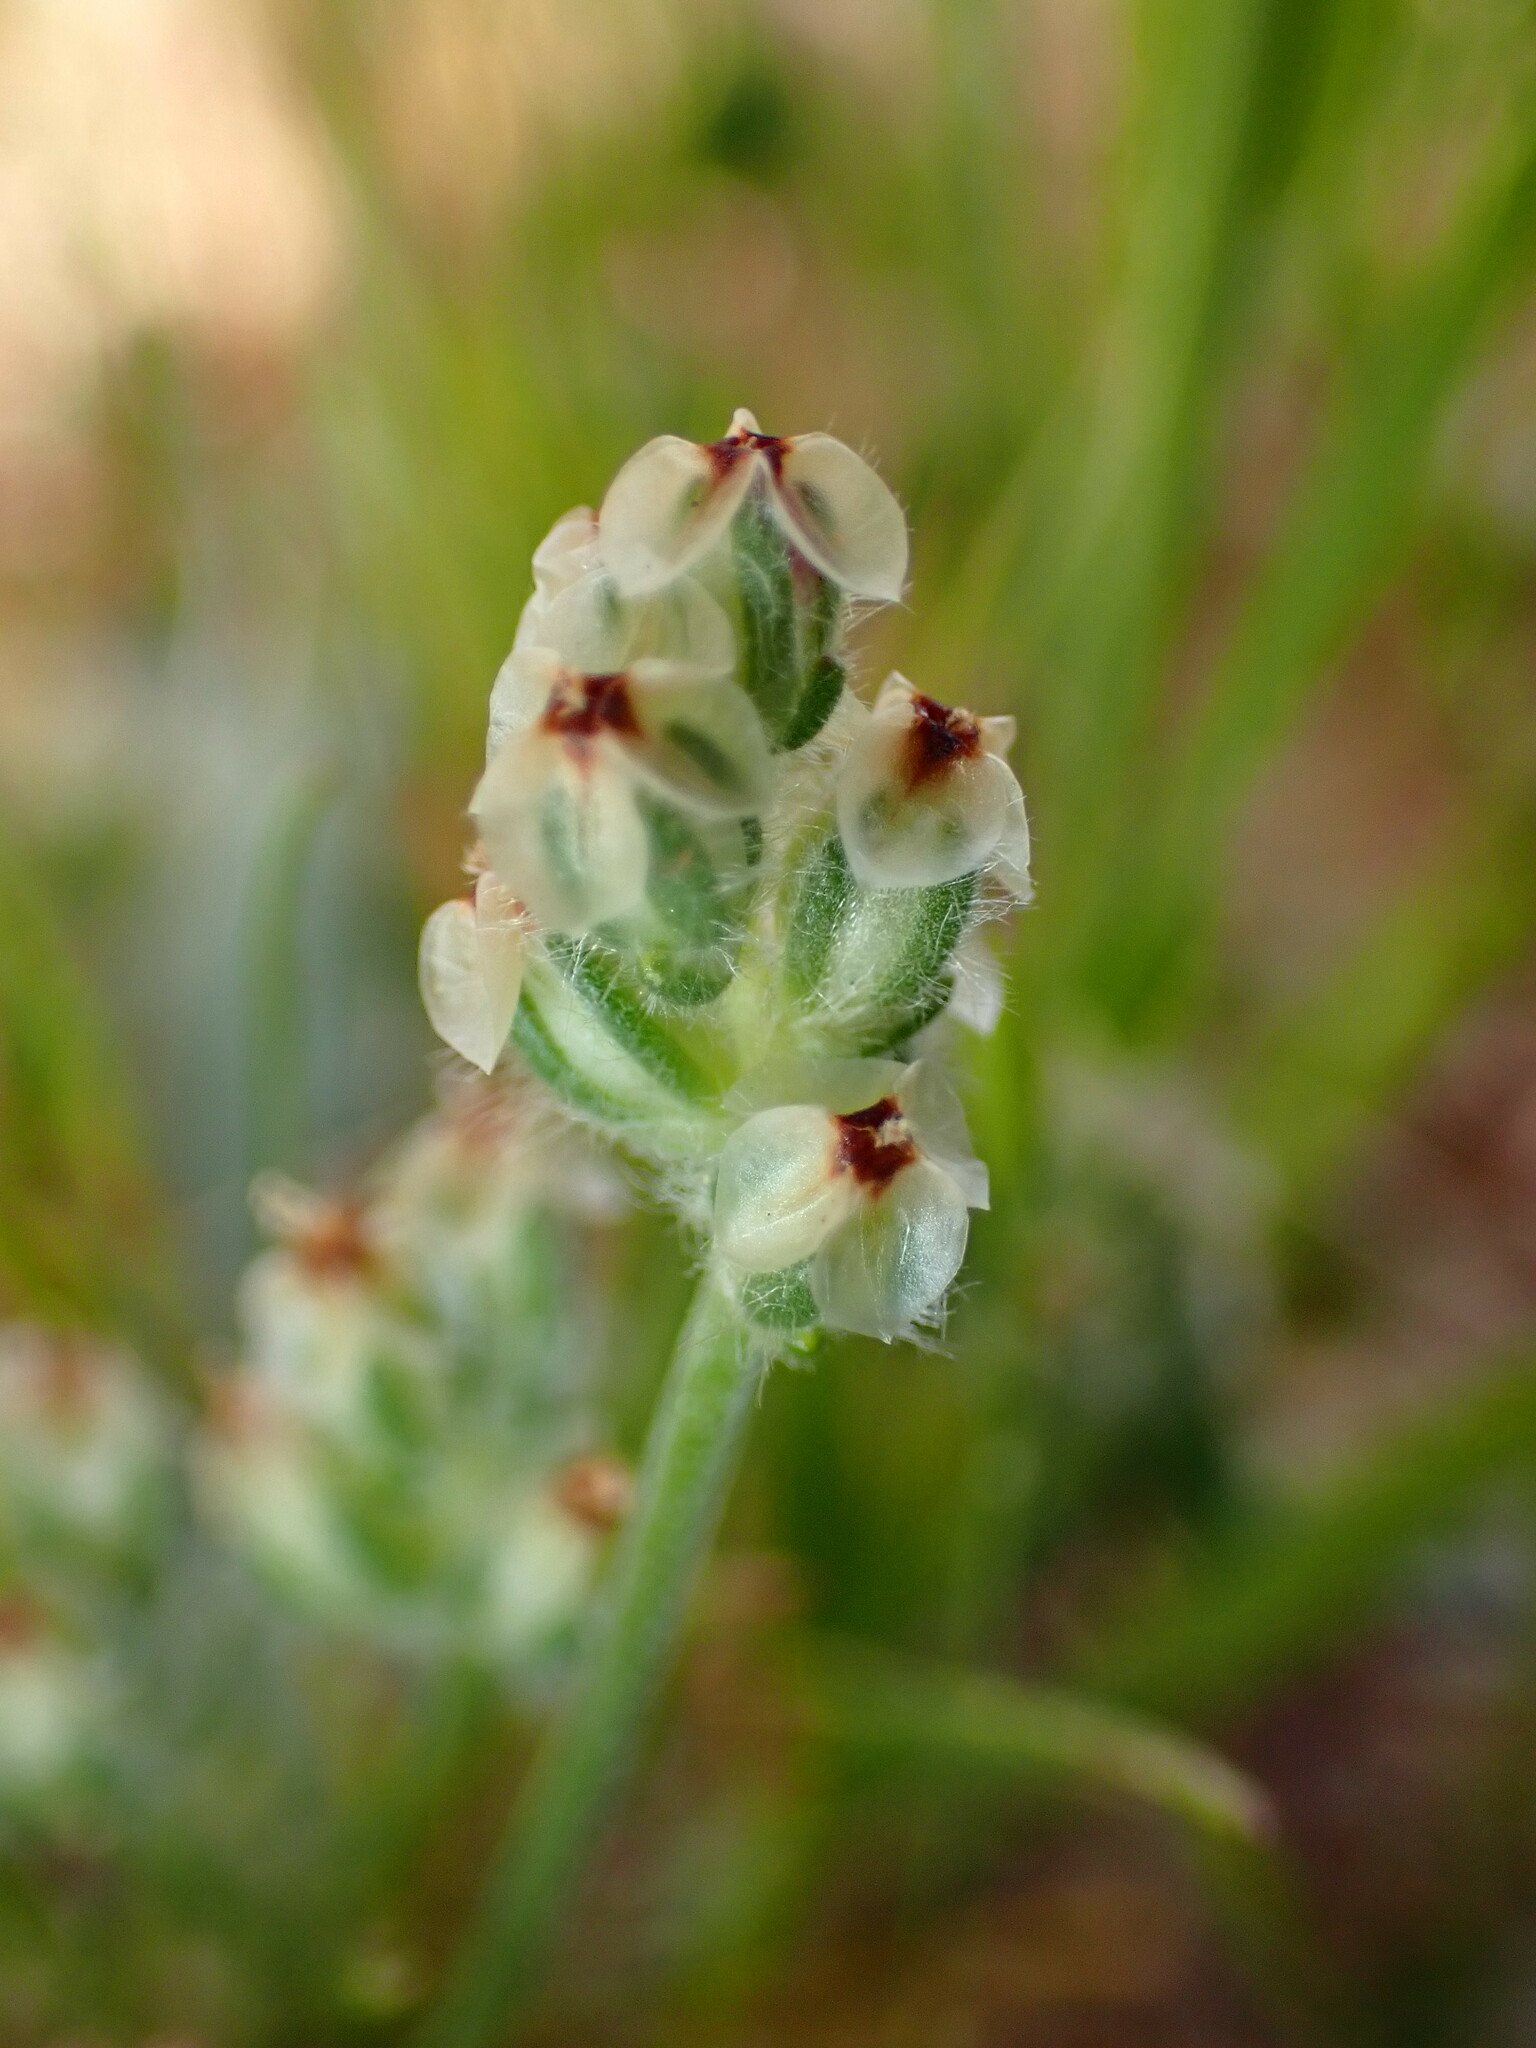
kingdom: Plantae
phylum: Tracheophyta
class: Magnoliopsida
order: Lamiales
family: Plantaginaceae
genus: Plantago
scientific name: Plantago erecta
